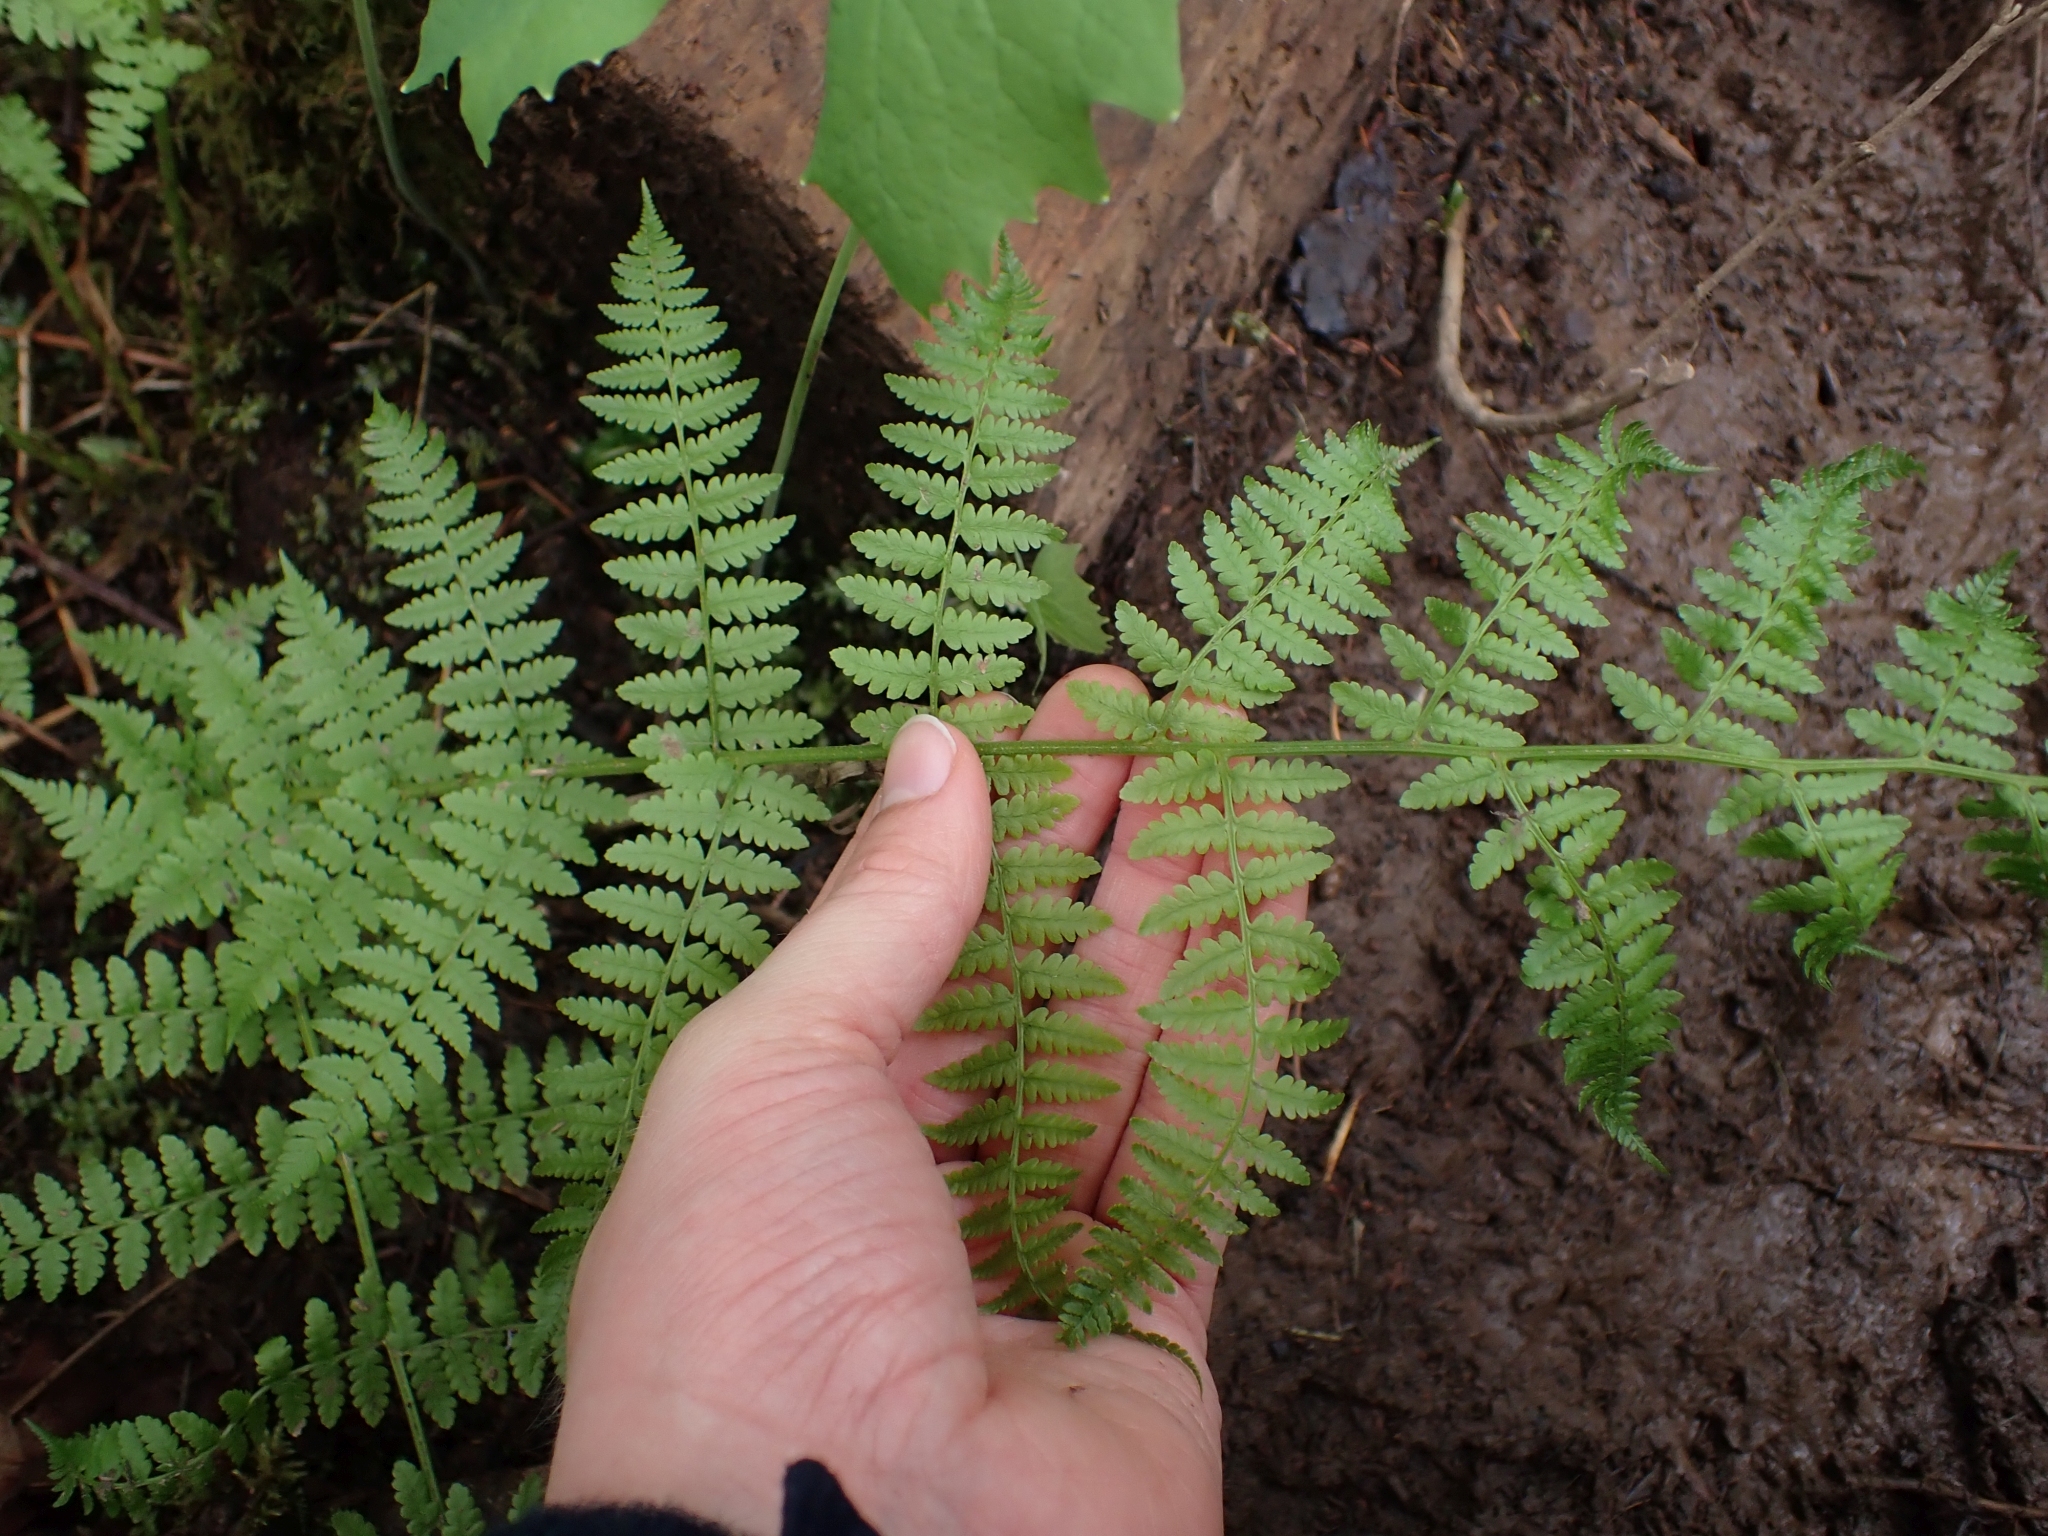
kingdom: Plantae
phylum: Tracheophyta
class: Polypodiopsida
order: Polypodiales
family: Athyriaceae
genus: Athyrium
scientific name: Athyrium filix-femina
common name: Lady fern
